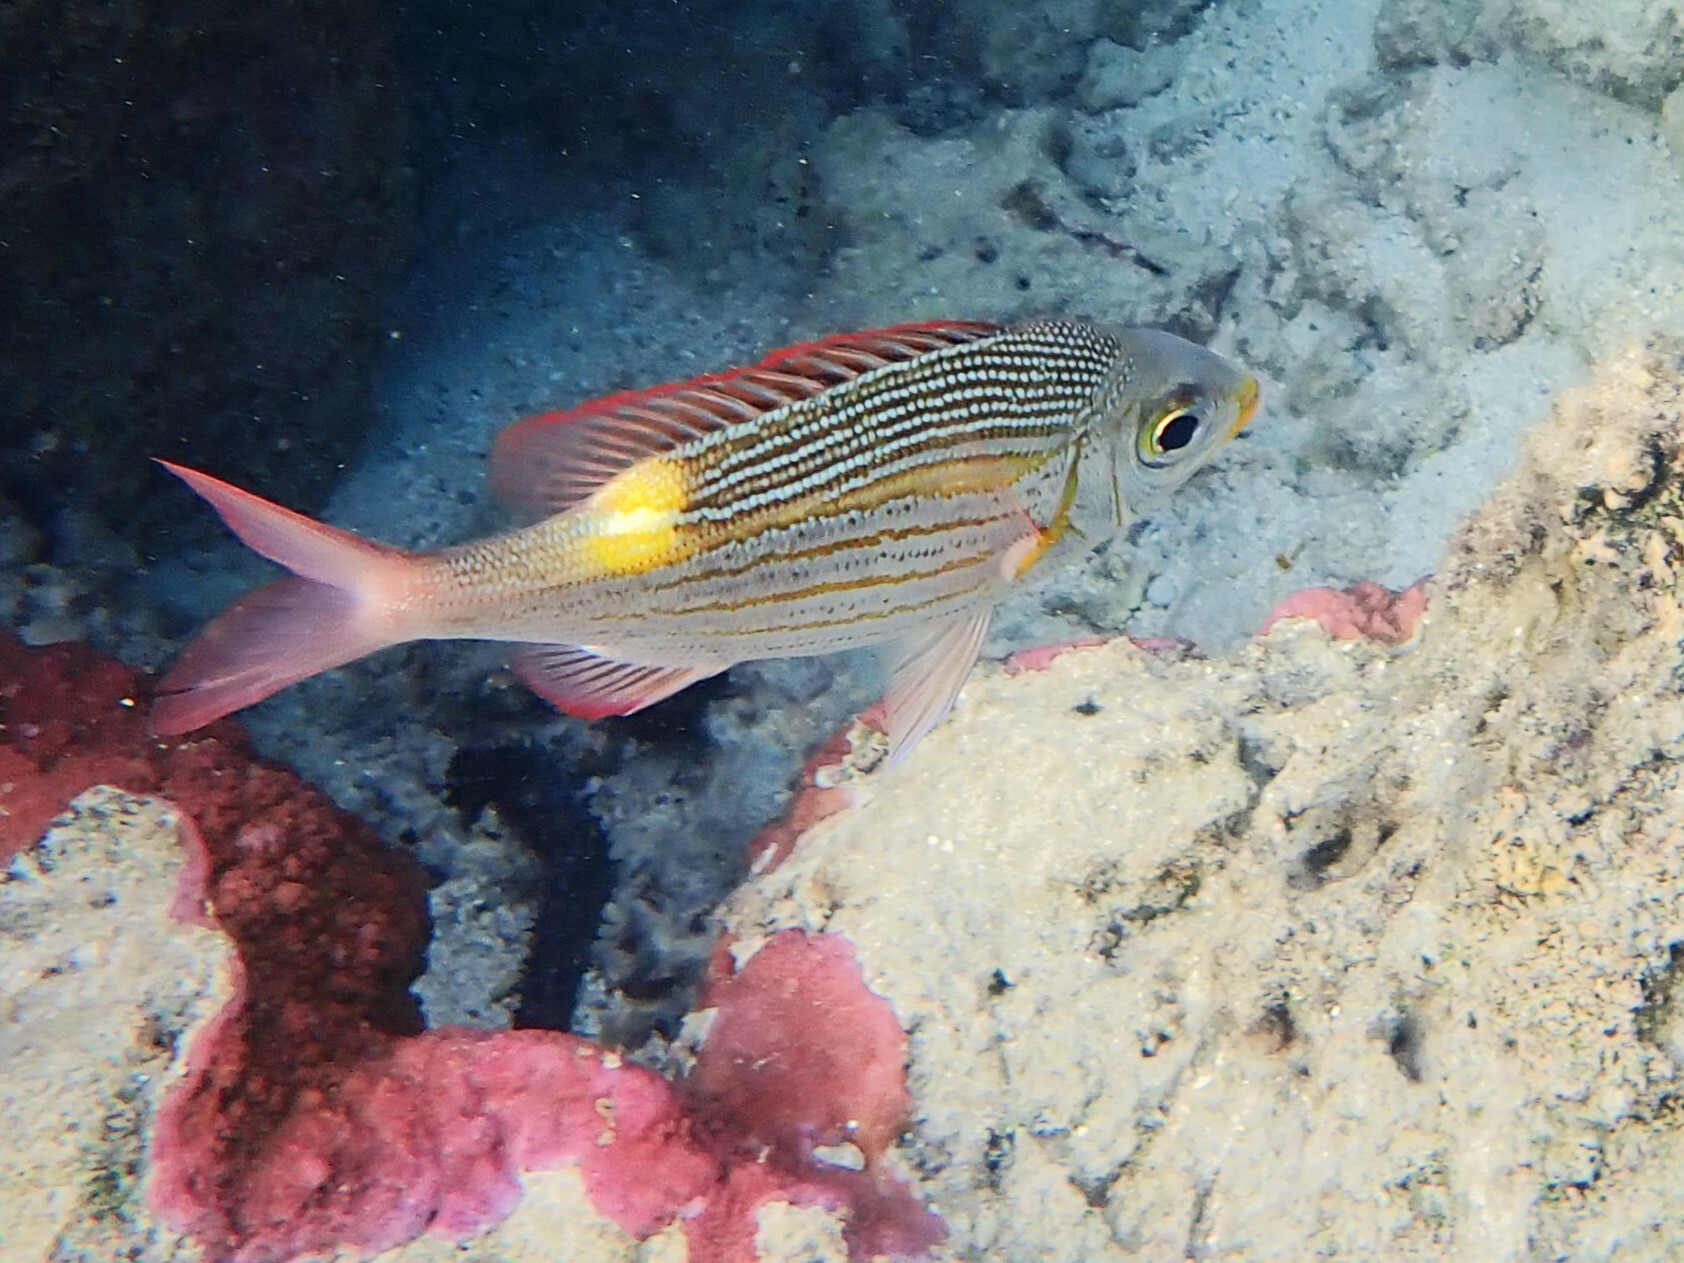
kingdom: Animalia
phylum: Chordata
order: Perciformes
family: Lethrinidae
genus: Gnathodentex
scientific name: Gnathodentex aureolineatus
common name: Gold-lined sea bream
